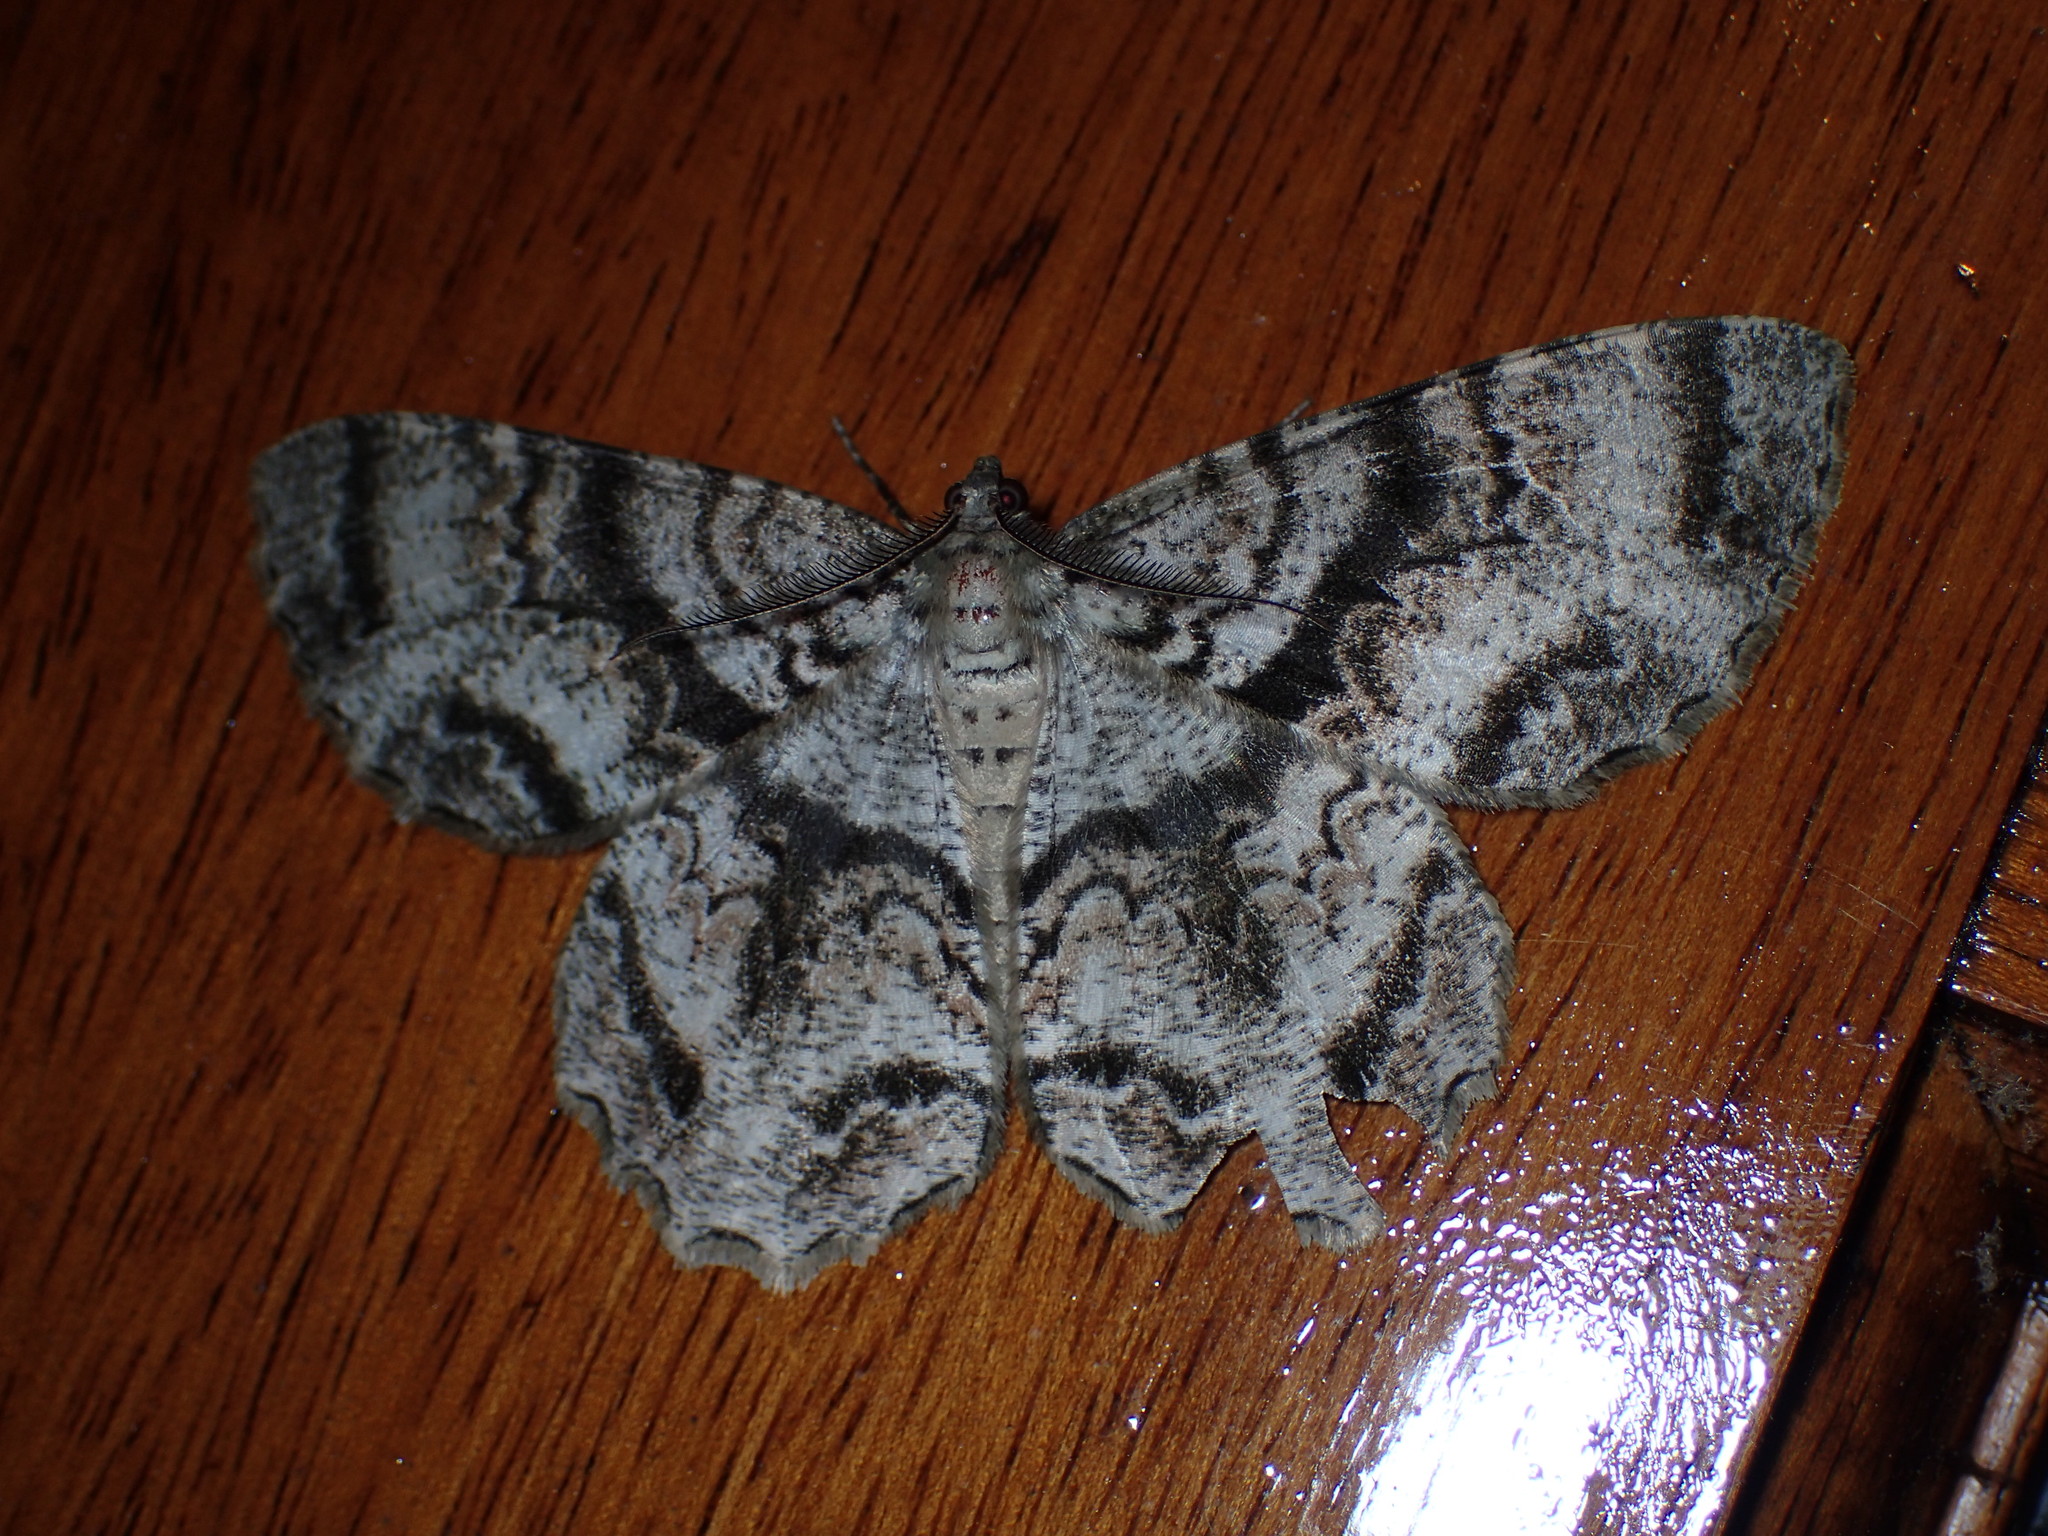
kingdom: Animalia
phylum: Arthropoda
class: Insecta
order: Lepidoptera
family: Geometridae
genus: Epimecis
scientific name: Epimecis hortaria
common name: Tulip-tree beauty
